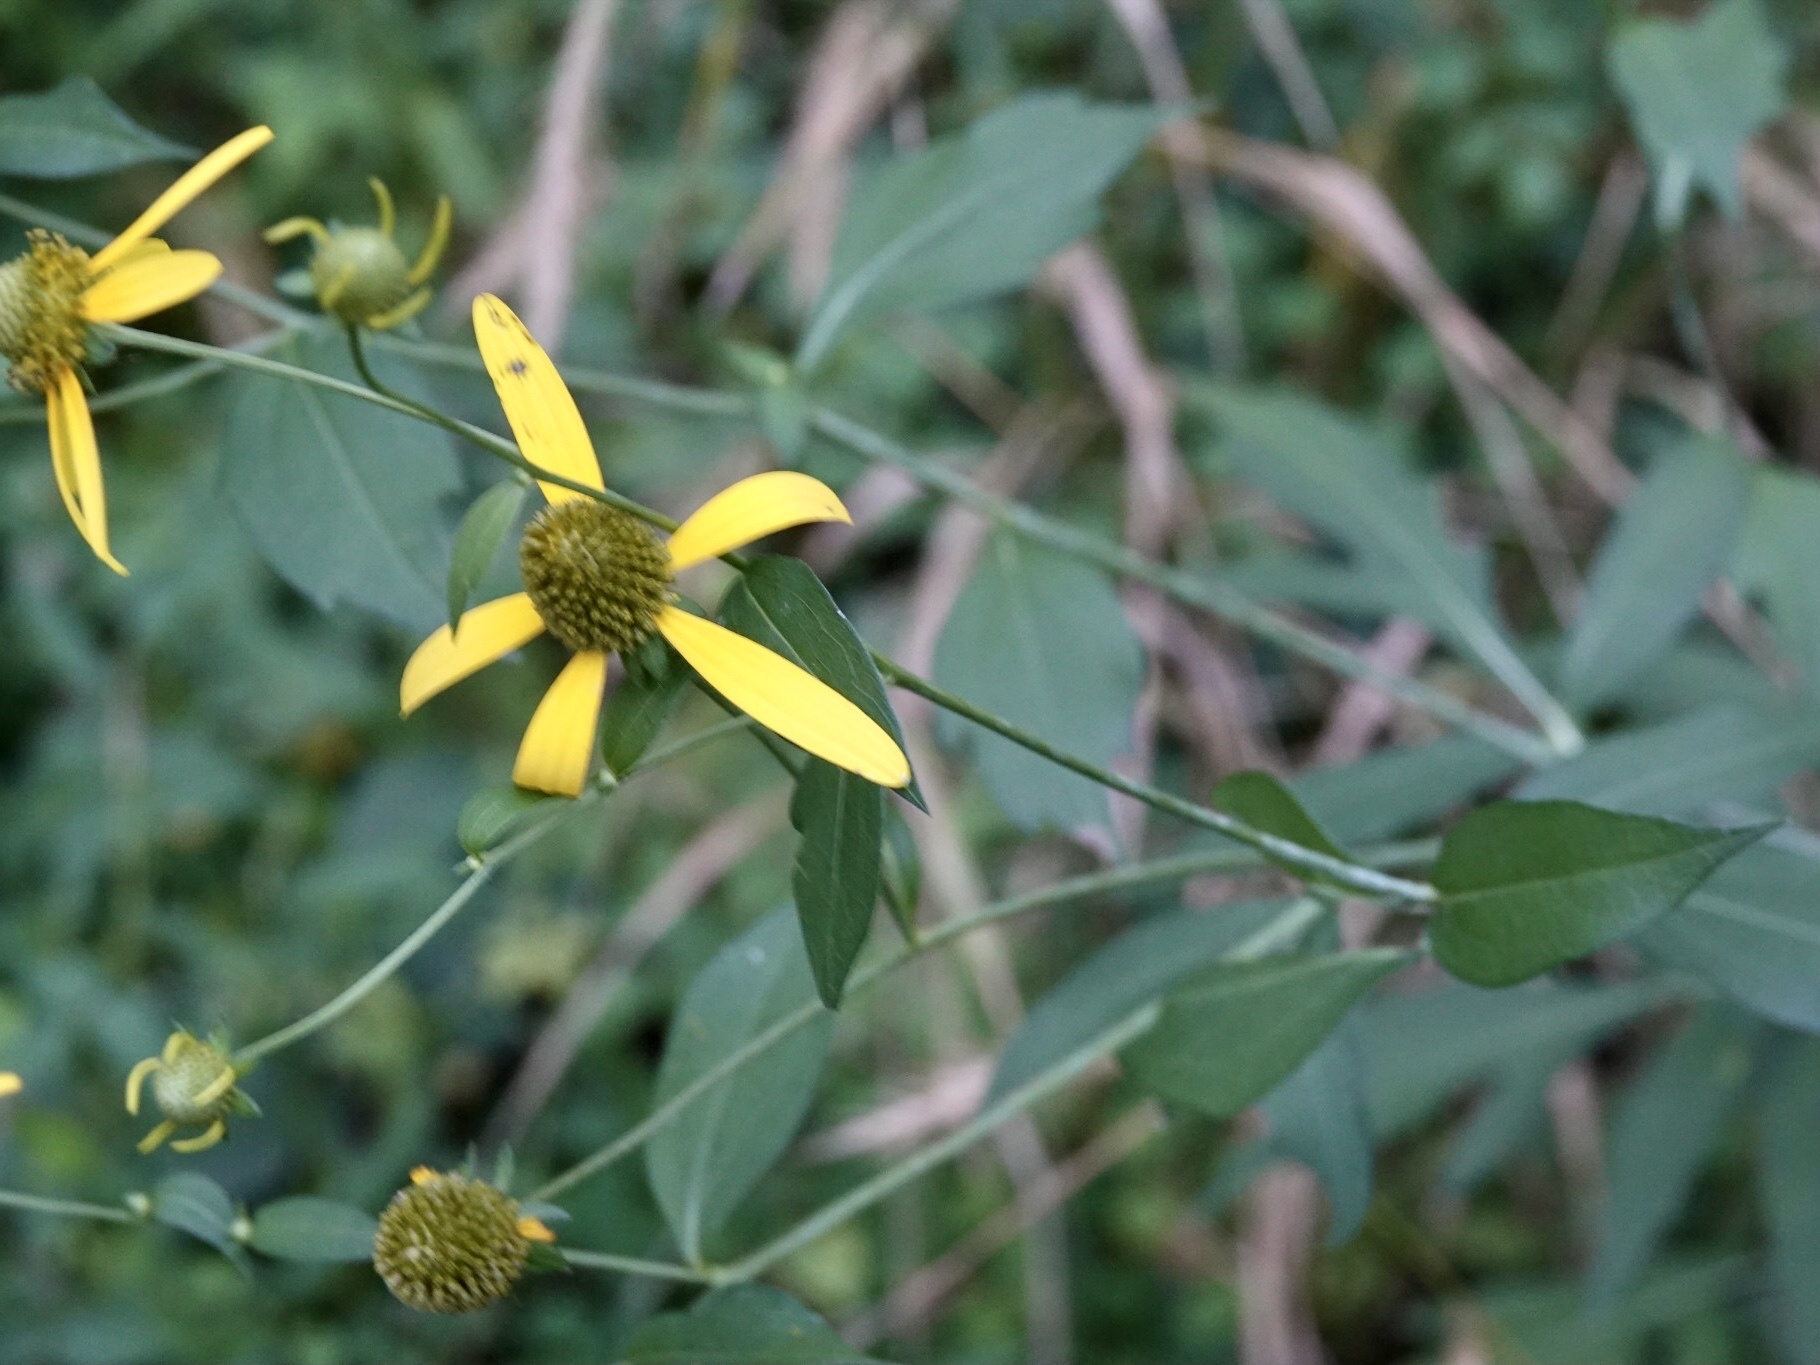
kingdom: Plantae
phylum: Tracheophyta
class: Magnoliopsida
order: Asterales
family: Asteraceae
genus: Rudbeckia
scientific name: Rudbeckia laciniata
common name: Coneflower
